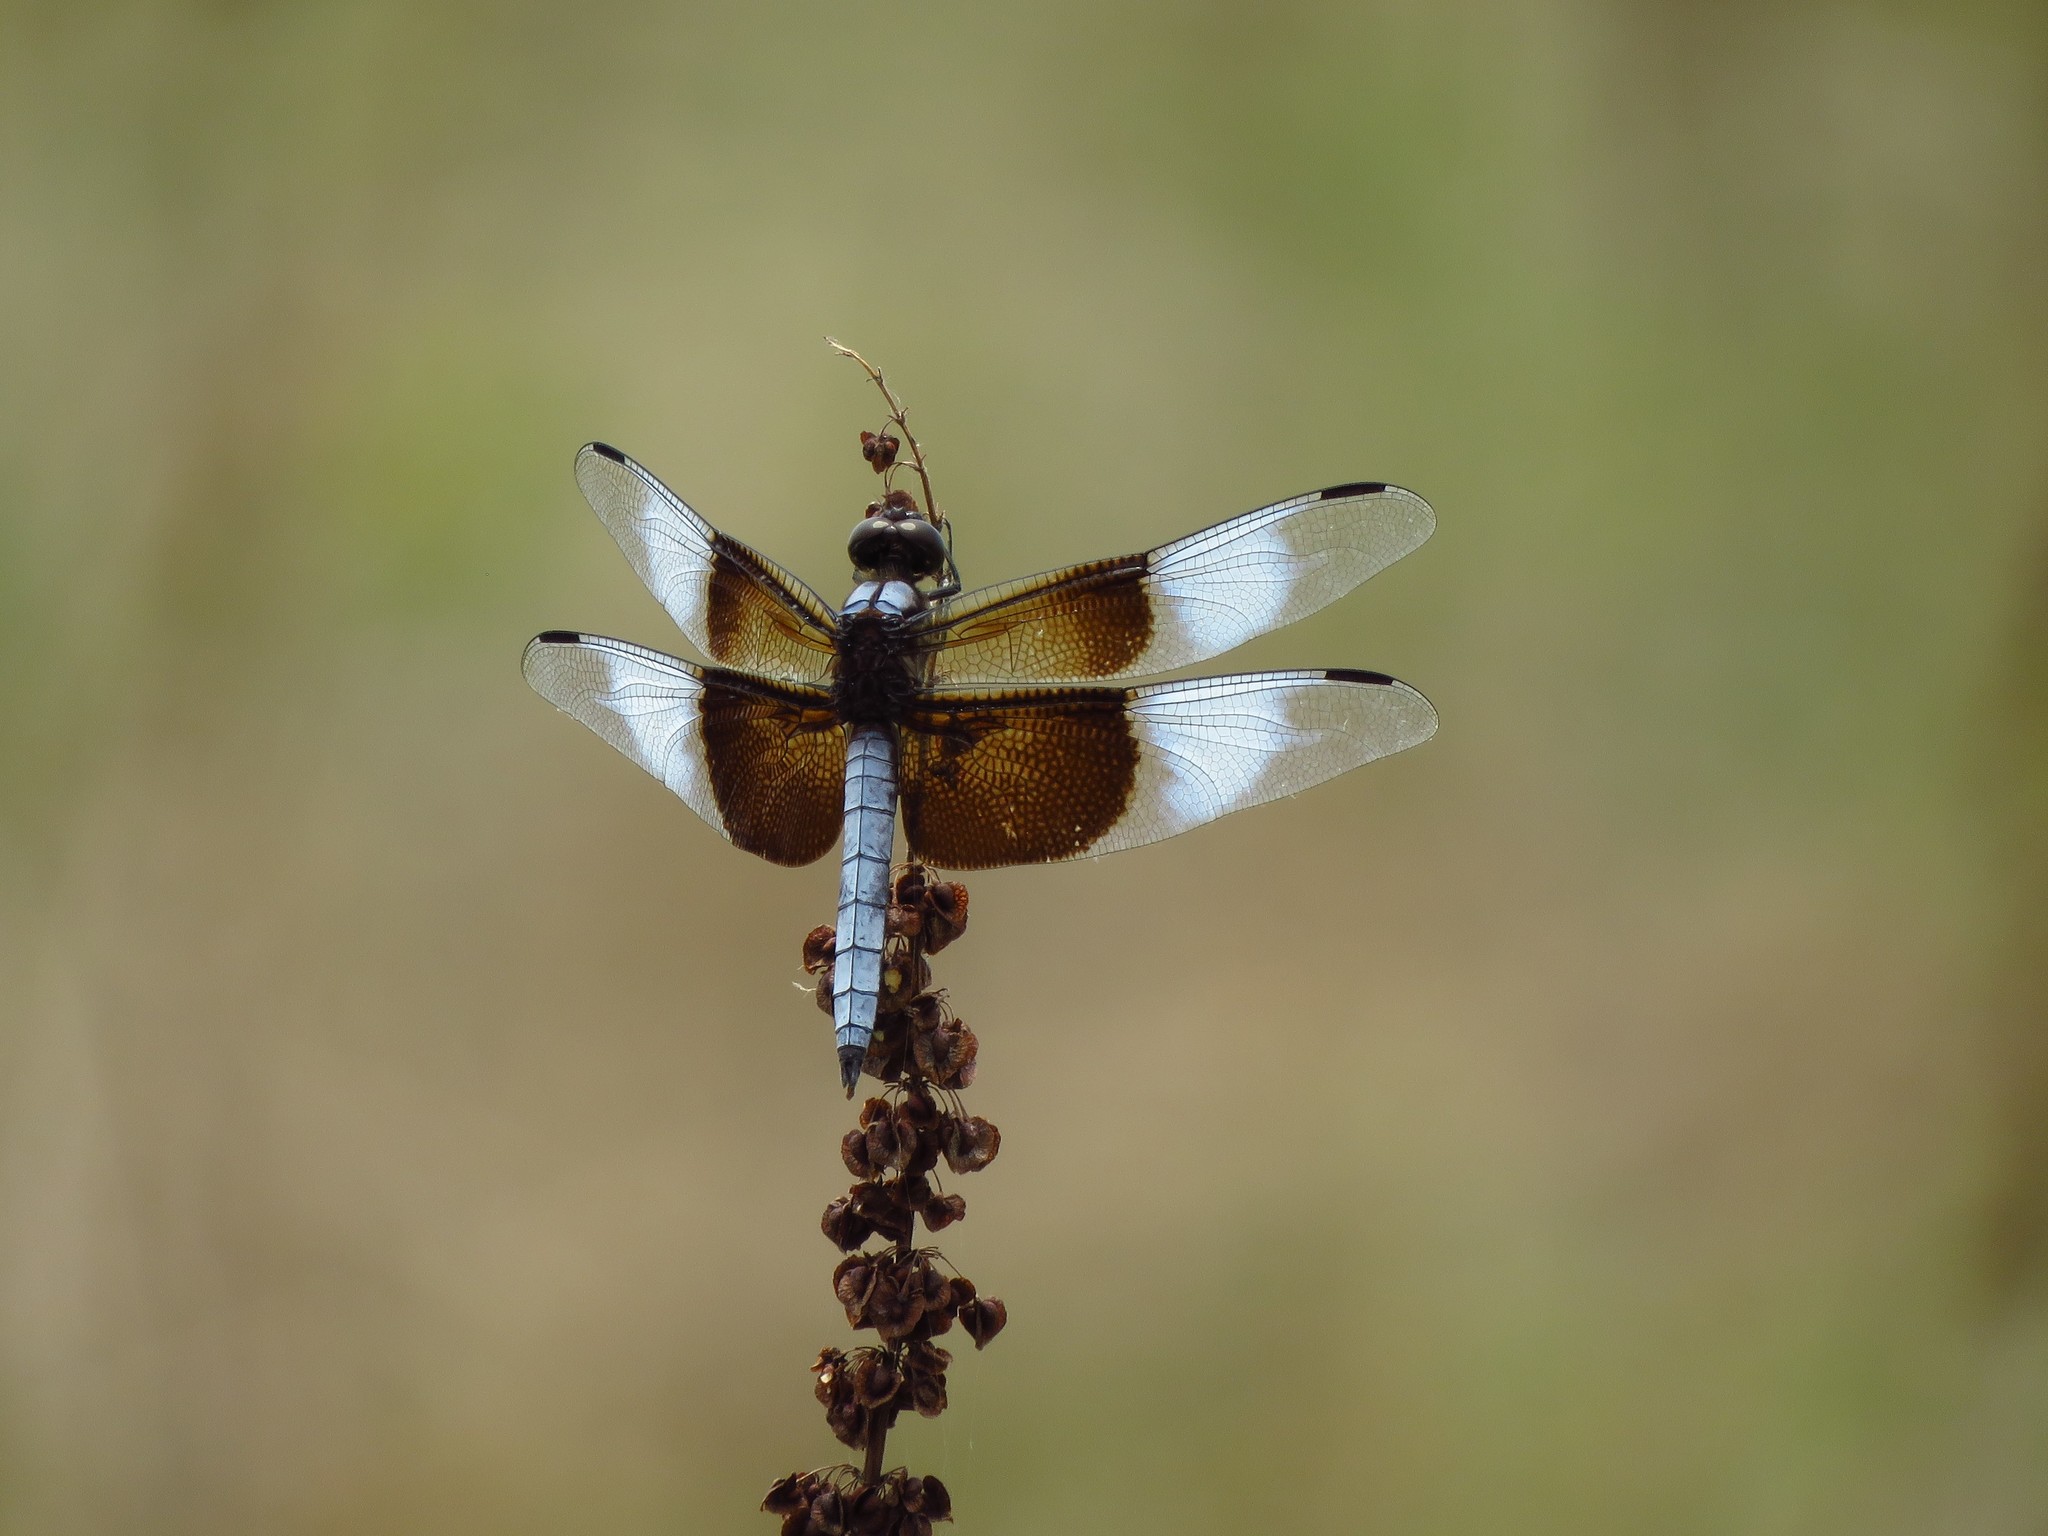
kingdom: Animalia
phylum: Arthropoda
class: Insecta
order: Odonata
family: Libellulidae
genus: Libellula
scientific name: Libellula luctuosa
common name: Widow skimmer
